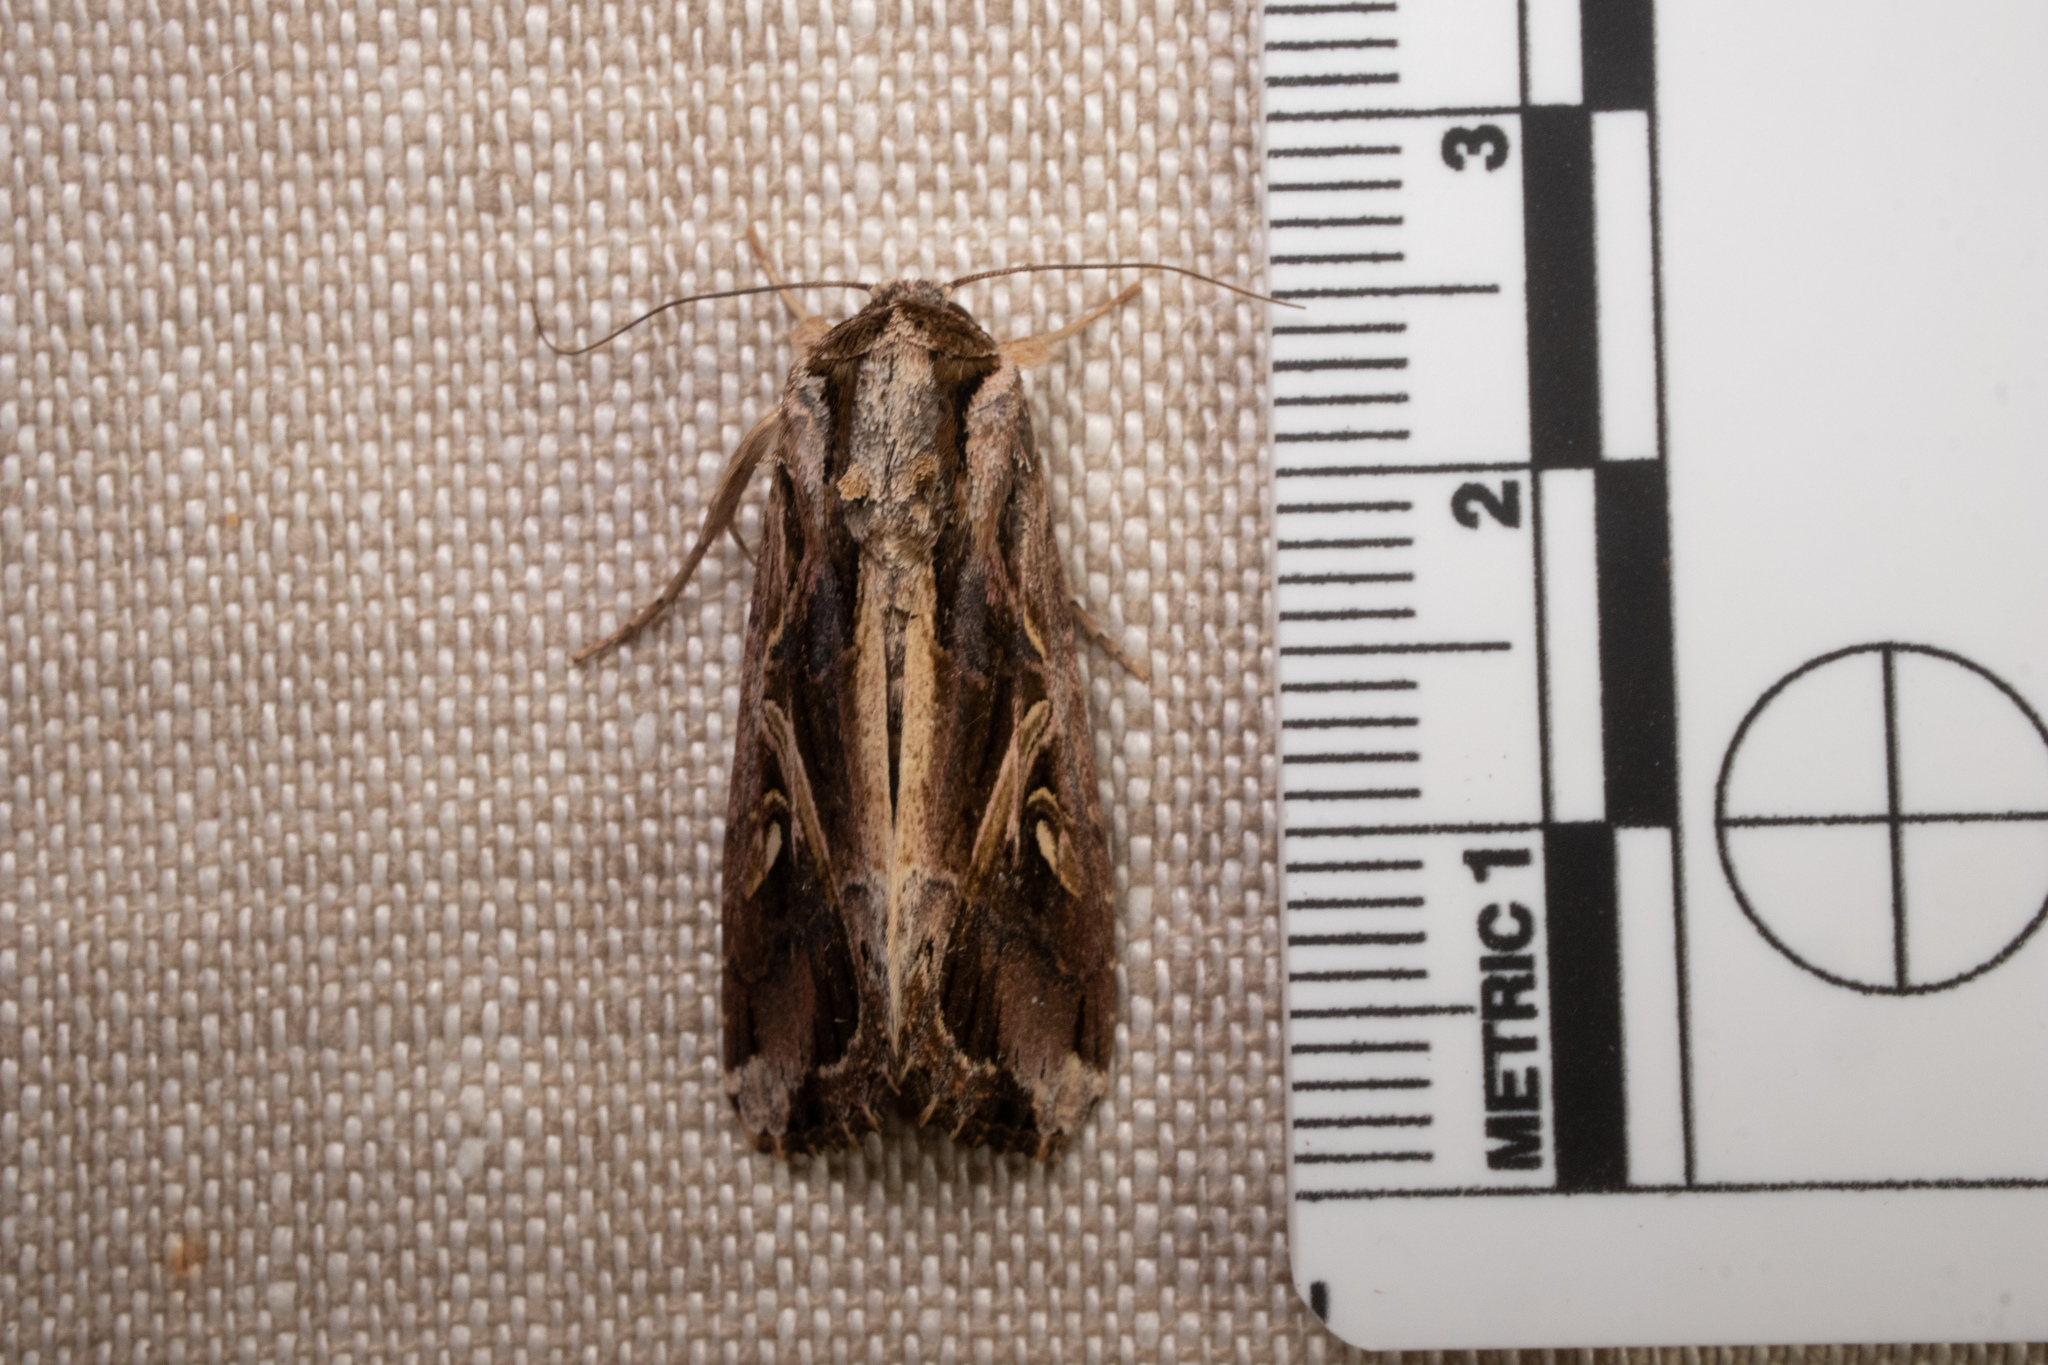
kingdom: Animalia
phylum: Arthropoda
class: Insecta
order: Lepidoptera
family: Noctuidae
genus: Spodoptera
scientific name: Spodoptera dolichos
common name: Sweetpotato armyworm
